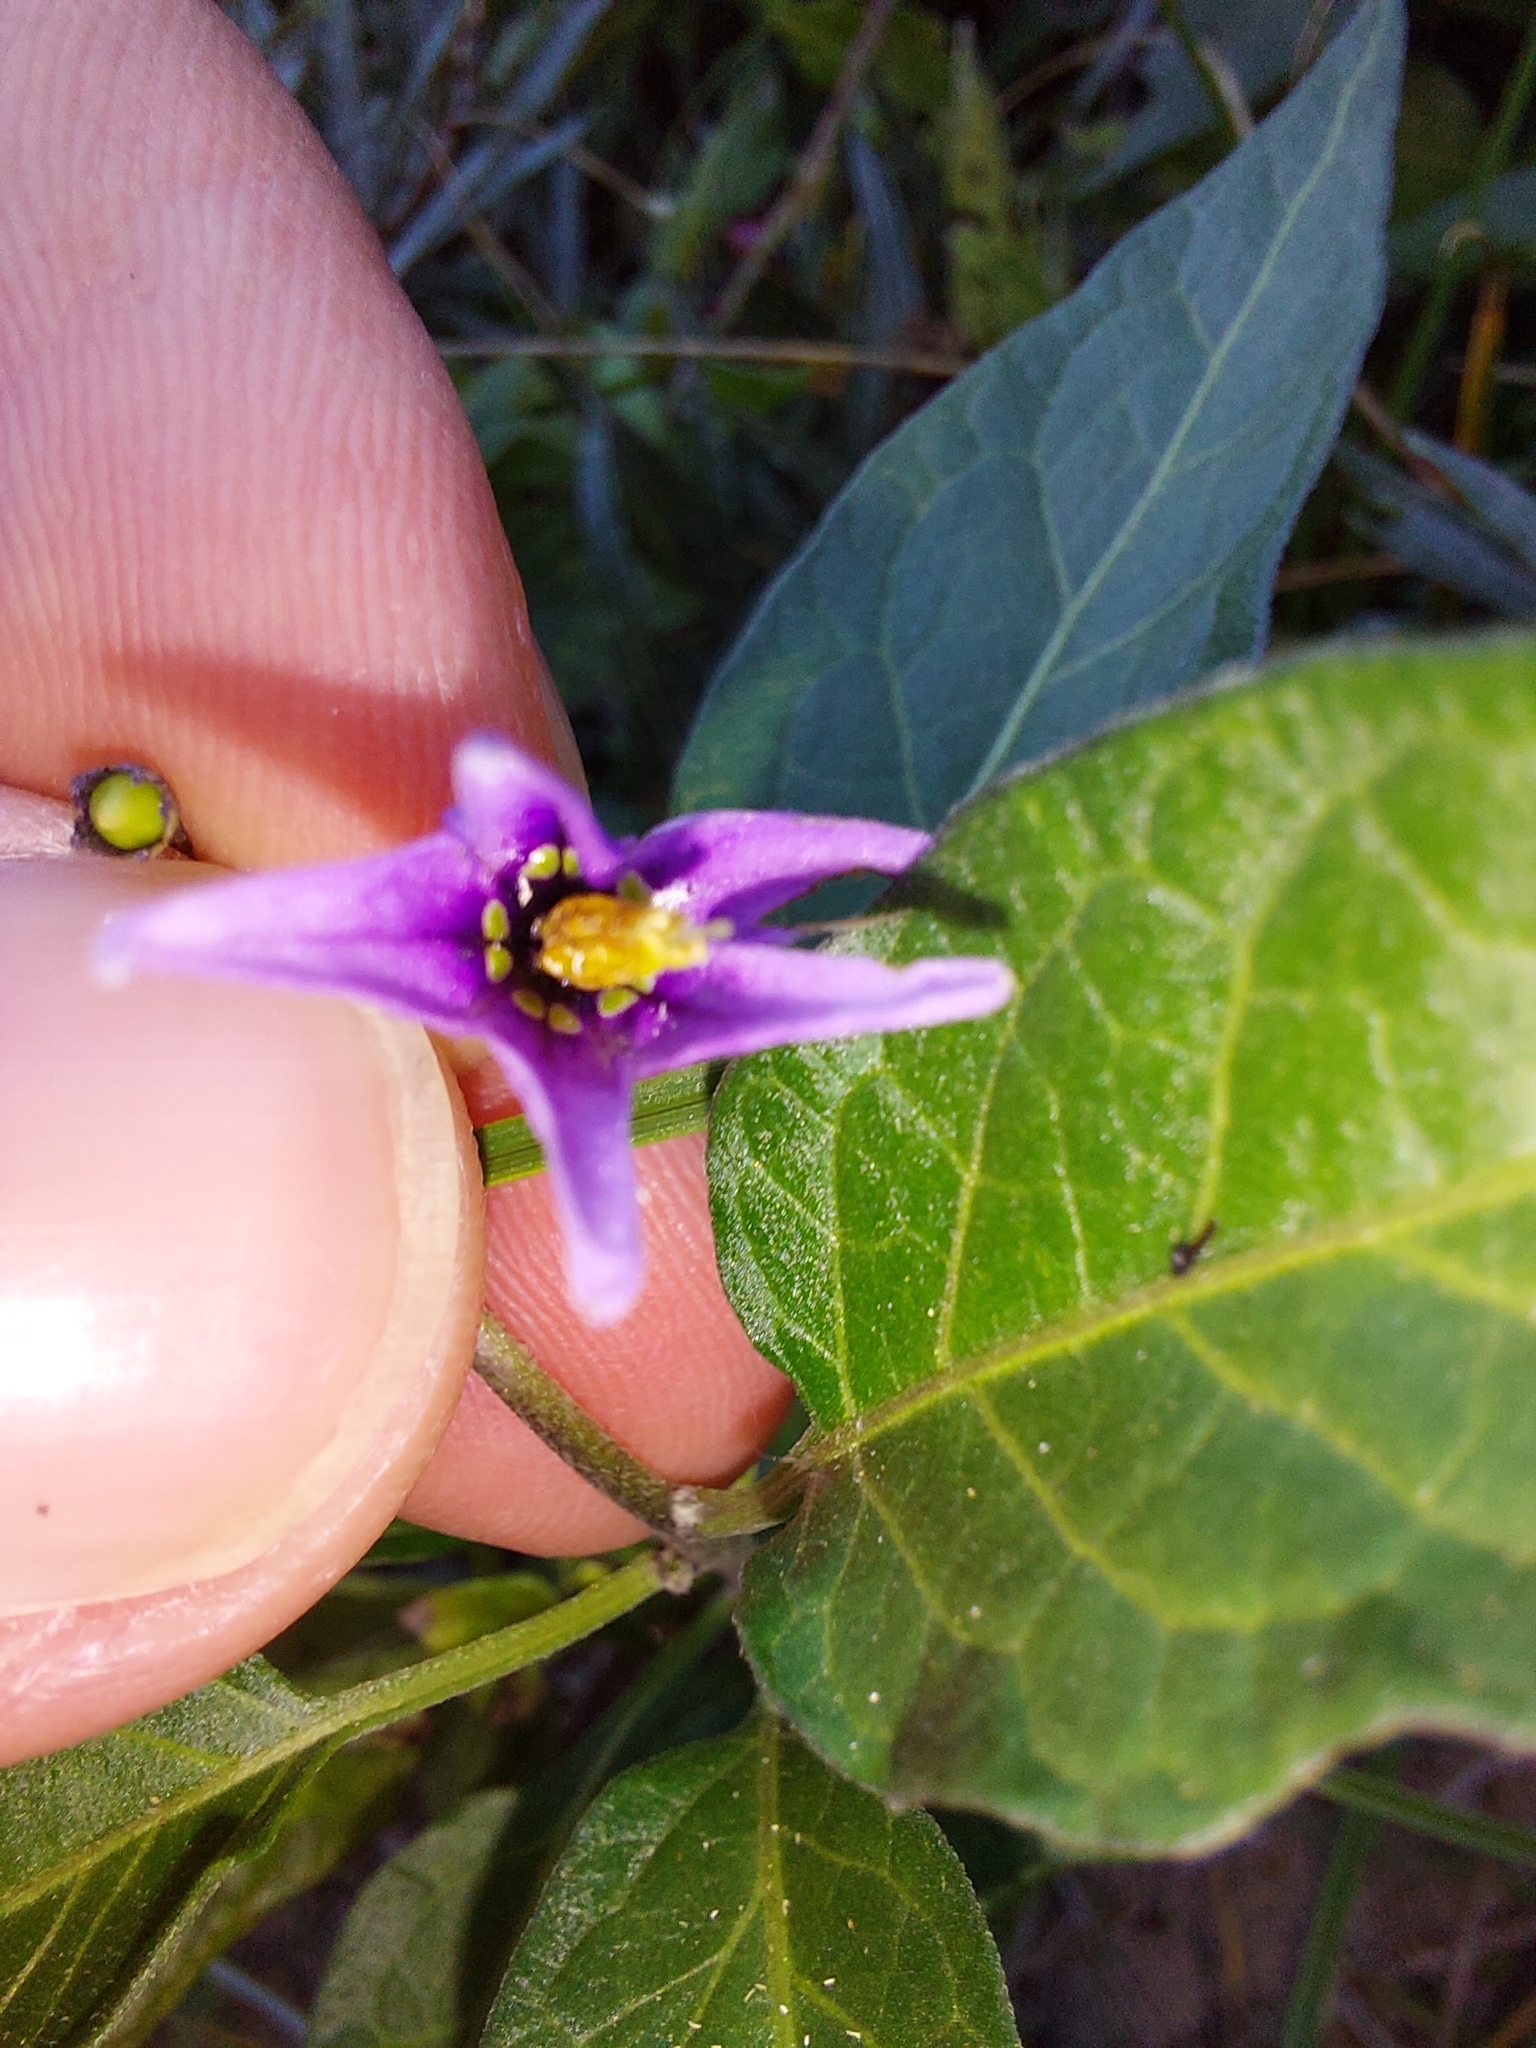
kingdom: Plantae
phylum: Tracheophyta
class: Magnoliopsida
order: Solanales
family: Solanaceae
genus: Solanum
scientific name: Solanum dulcamara
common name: Climbing nightshade
